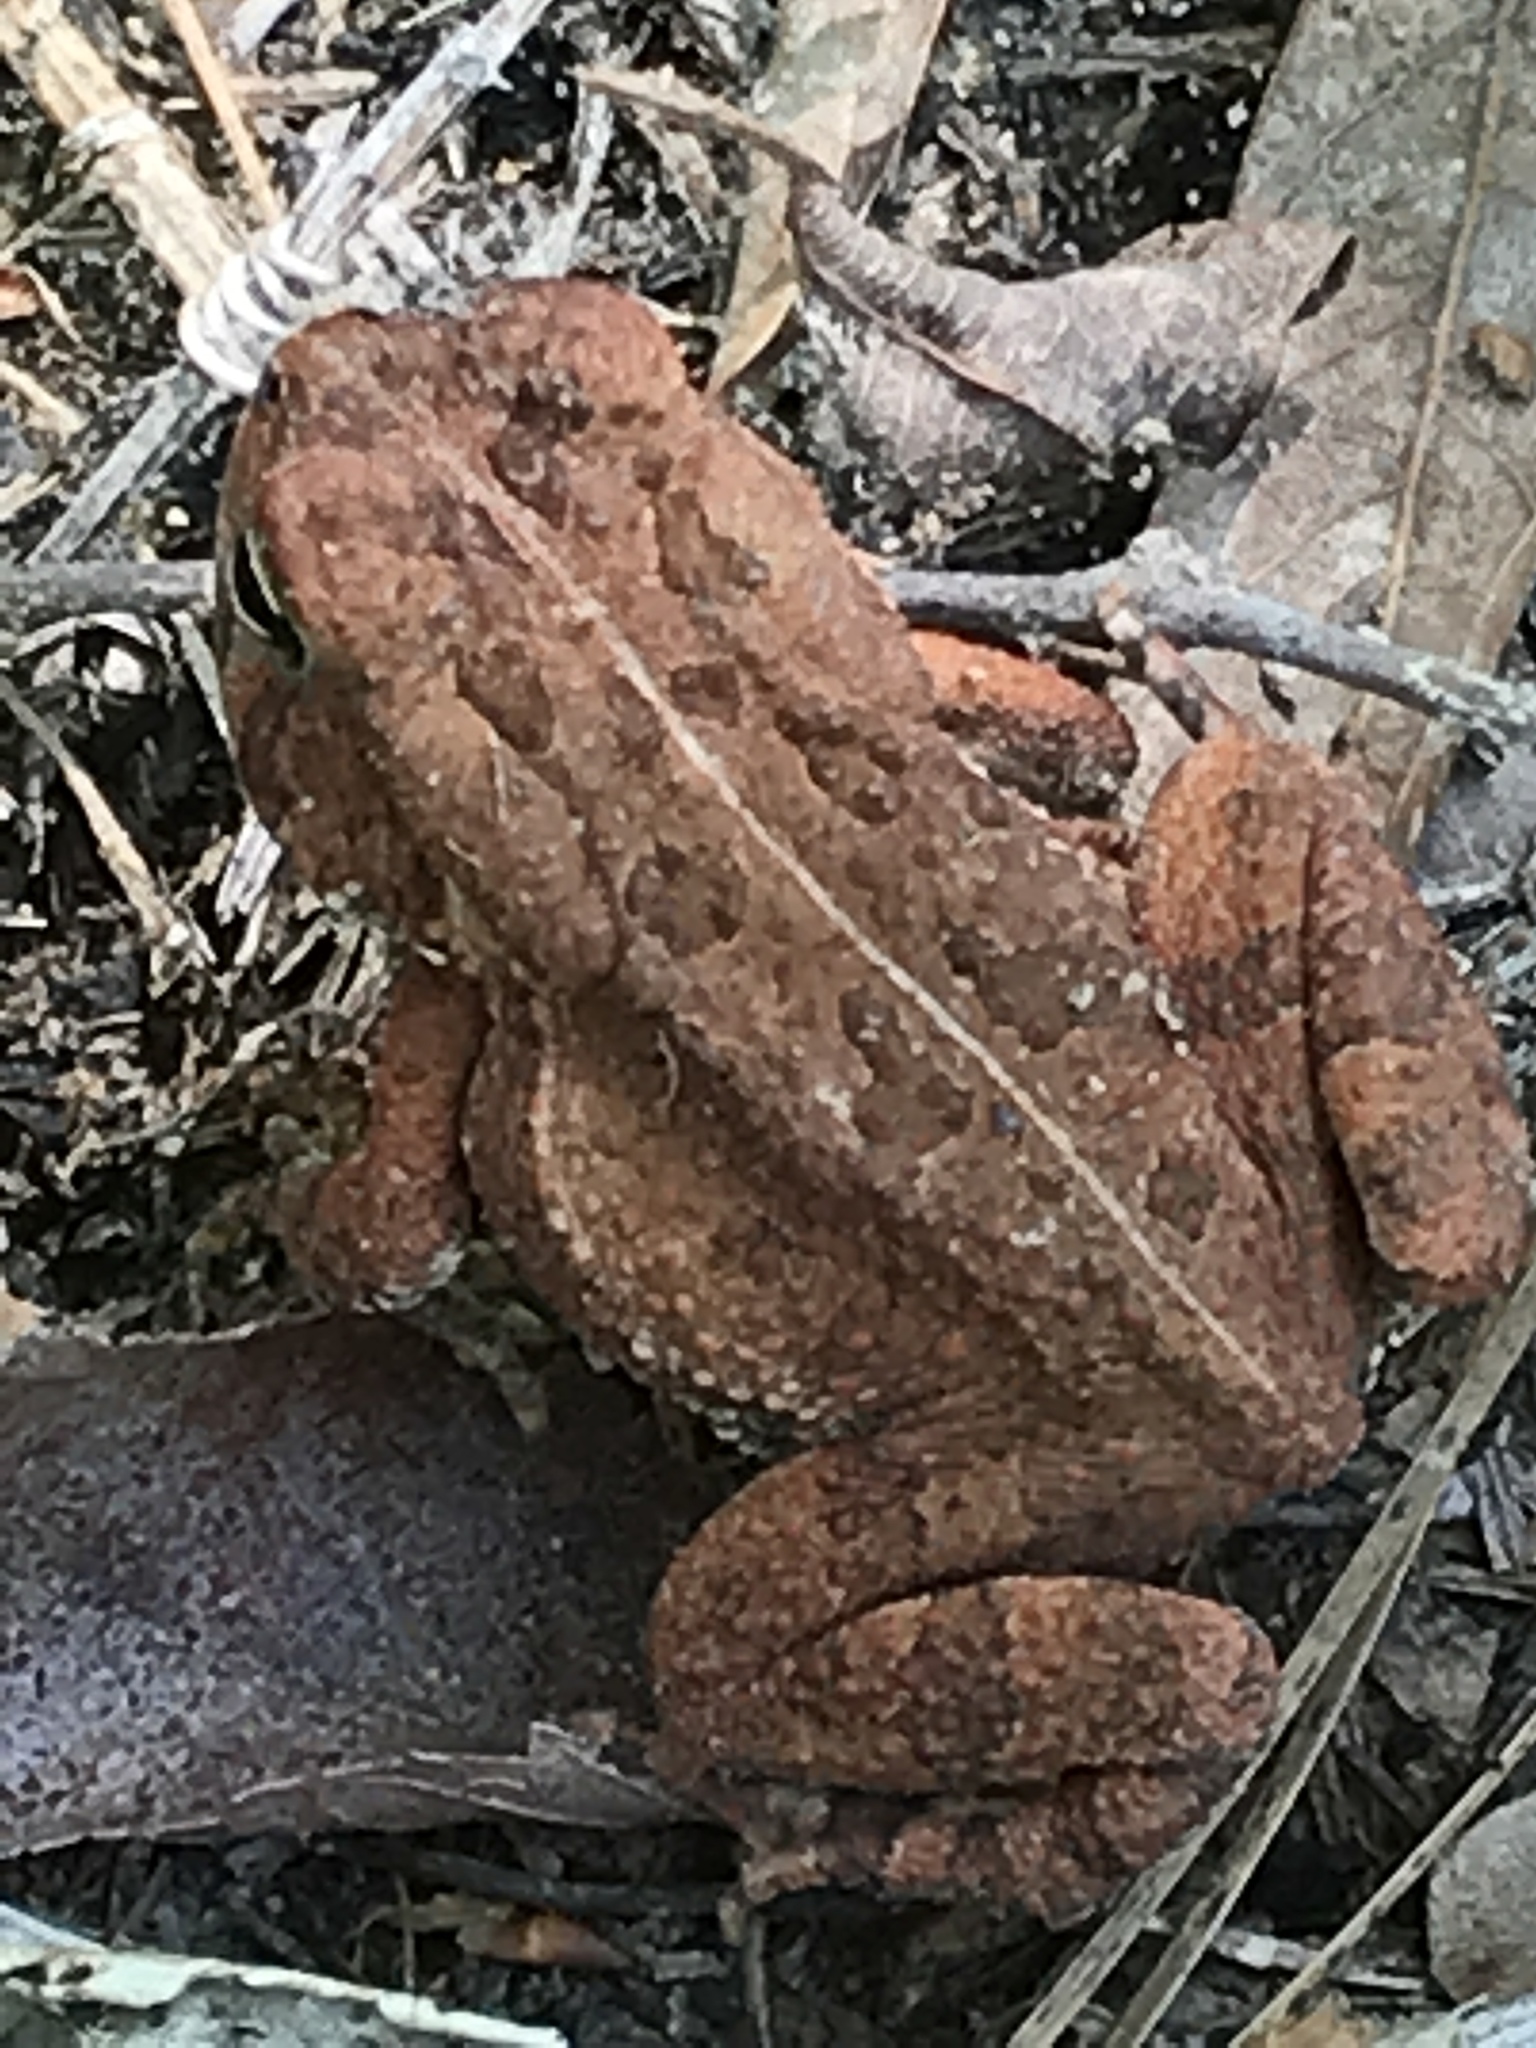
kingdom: Animalia
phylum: Chordata
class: Amphibia
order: Anura
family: Bufonidae
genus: Anaxyrus
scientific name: Anaxyrus fowleri
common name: Fowler's toad
